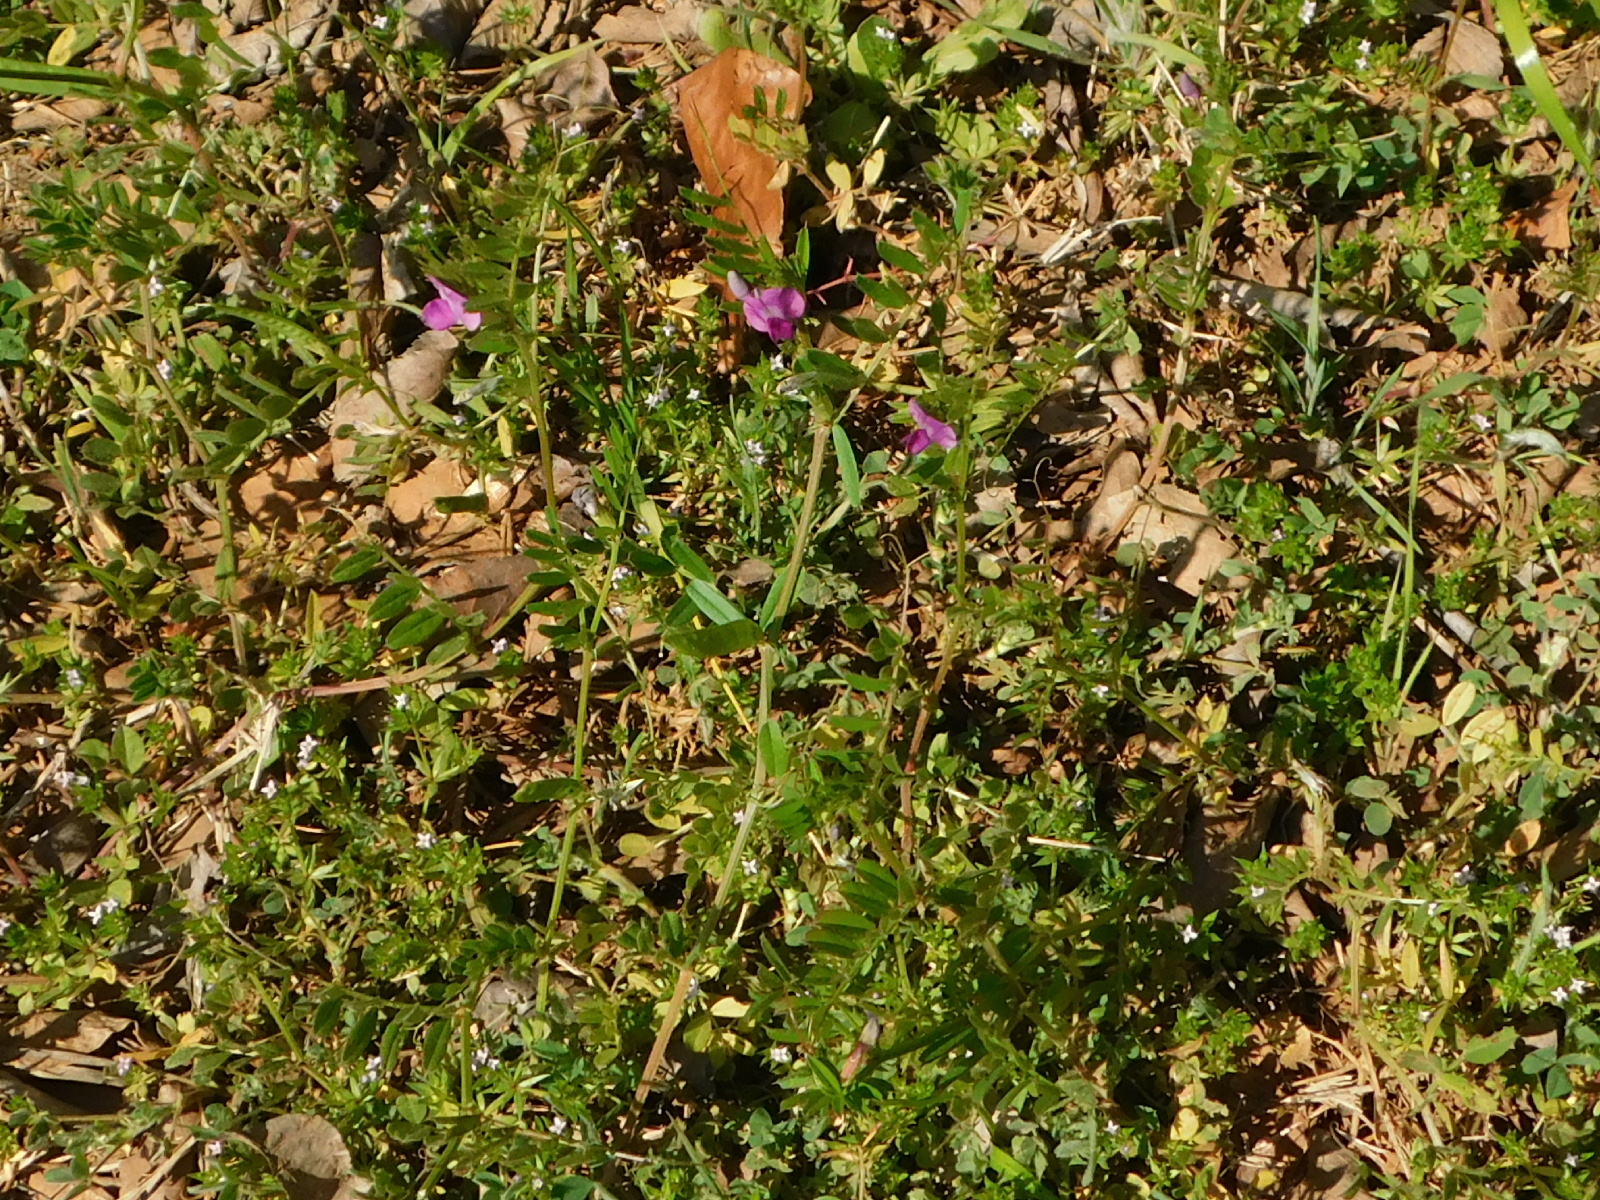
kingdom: Plantae
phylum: Tracheophyta
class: Magnoliopsida
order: Fabales
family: Fabaceae
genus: Vicia
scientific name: Vicia sativa
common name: Garden vetch
